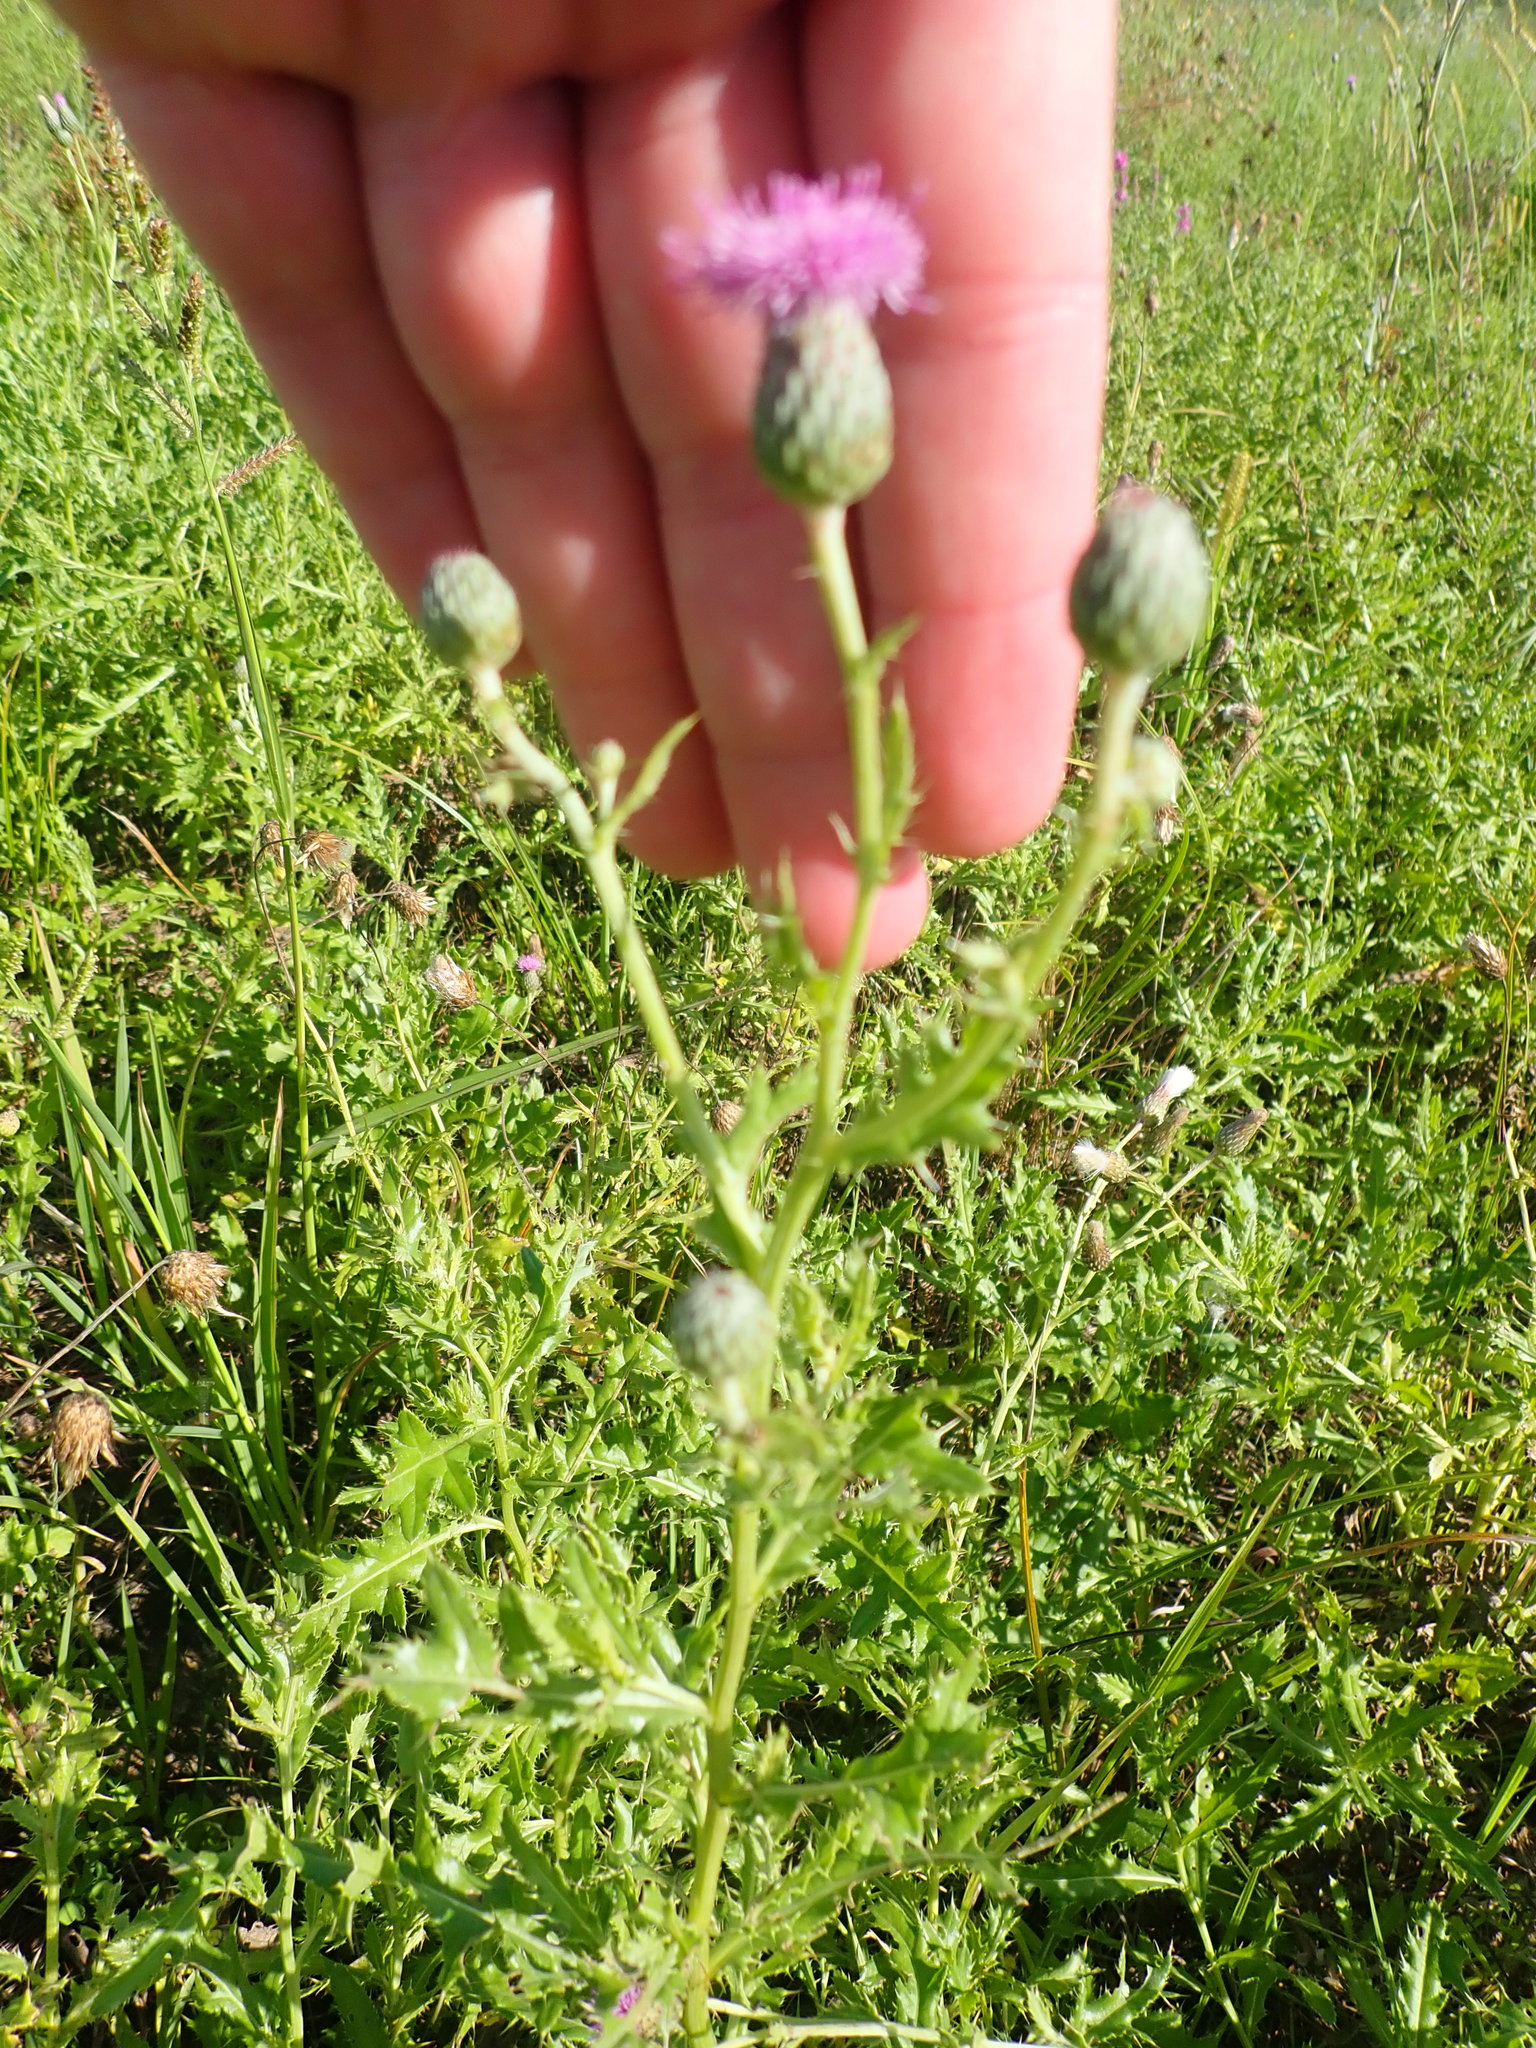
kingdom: Plantae
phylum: Tracheophyta
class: Magnoliopsida
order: Asterales
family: Asteraceae
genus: Cirsium
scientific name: Cirsium arvense
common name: Creeping thistle
